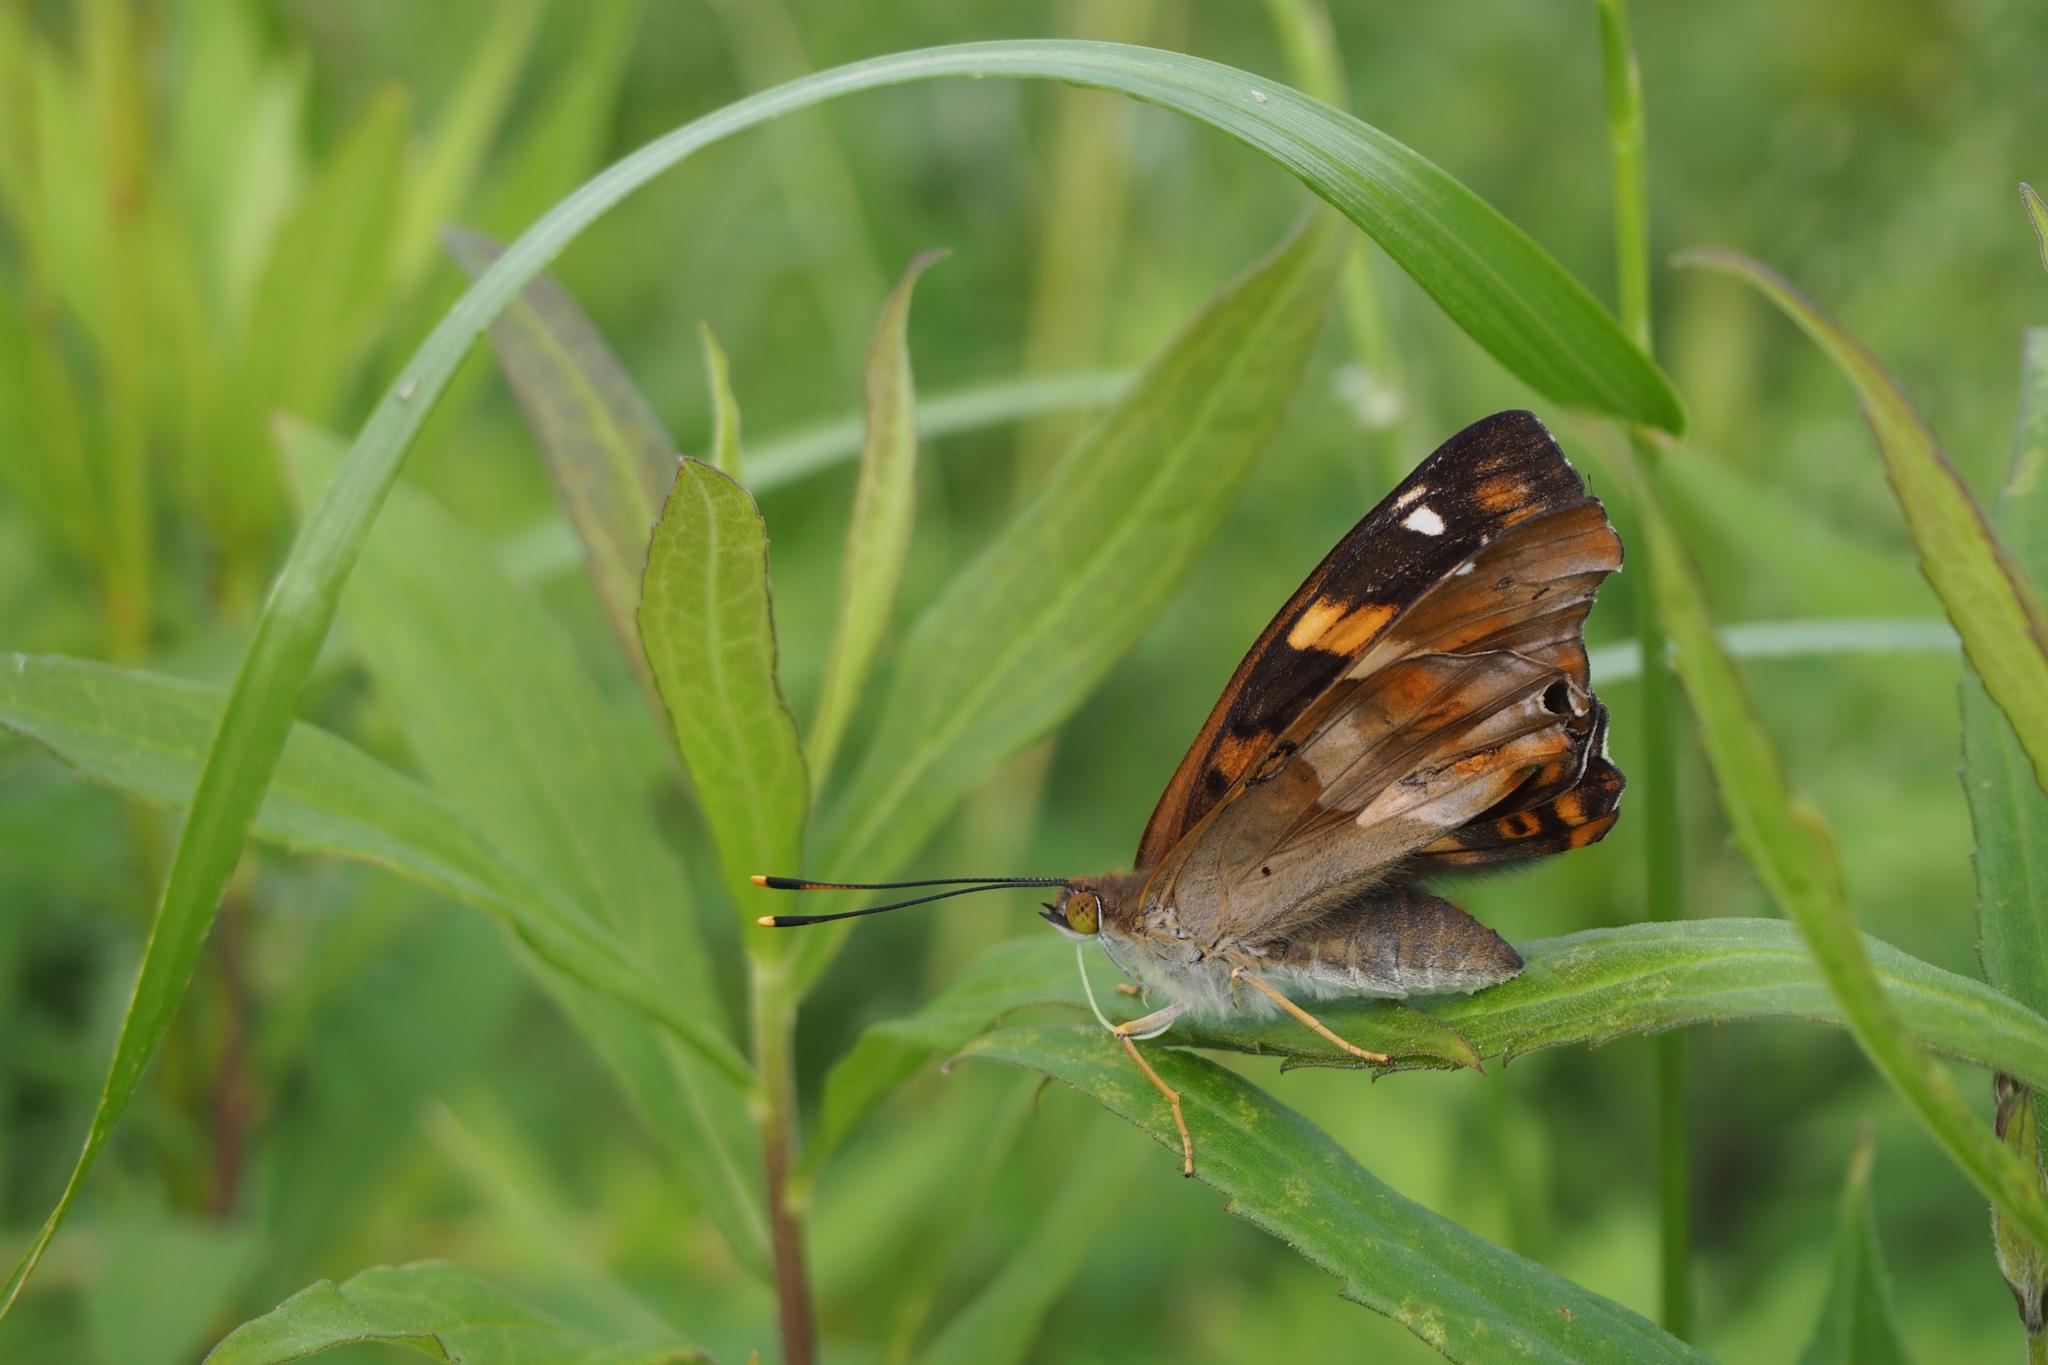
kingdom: Animalia
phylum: Arthropoda
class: Insecta
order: Lepidoptera
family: Nymphalidae
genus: Apatura
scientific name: Apatura ilia
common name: Lesser purple emperor
